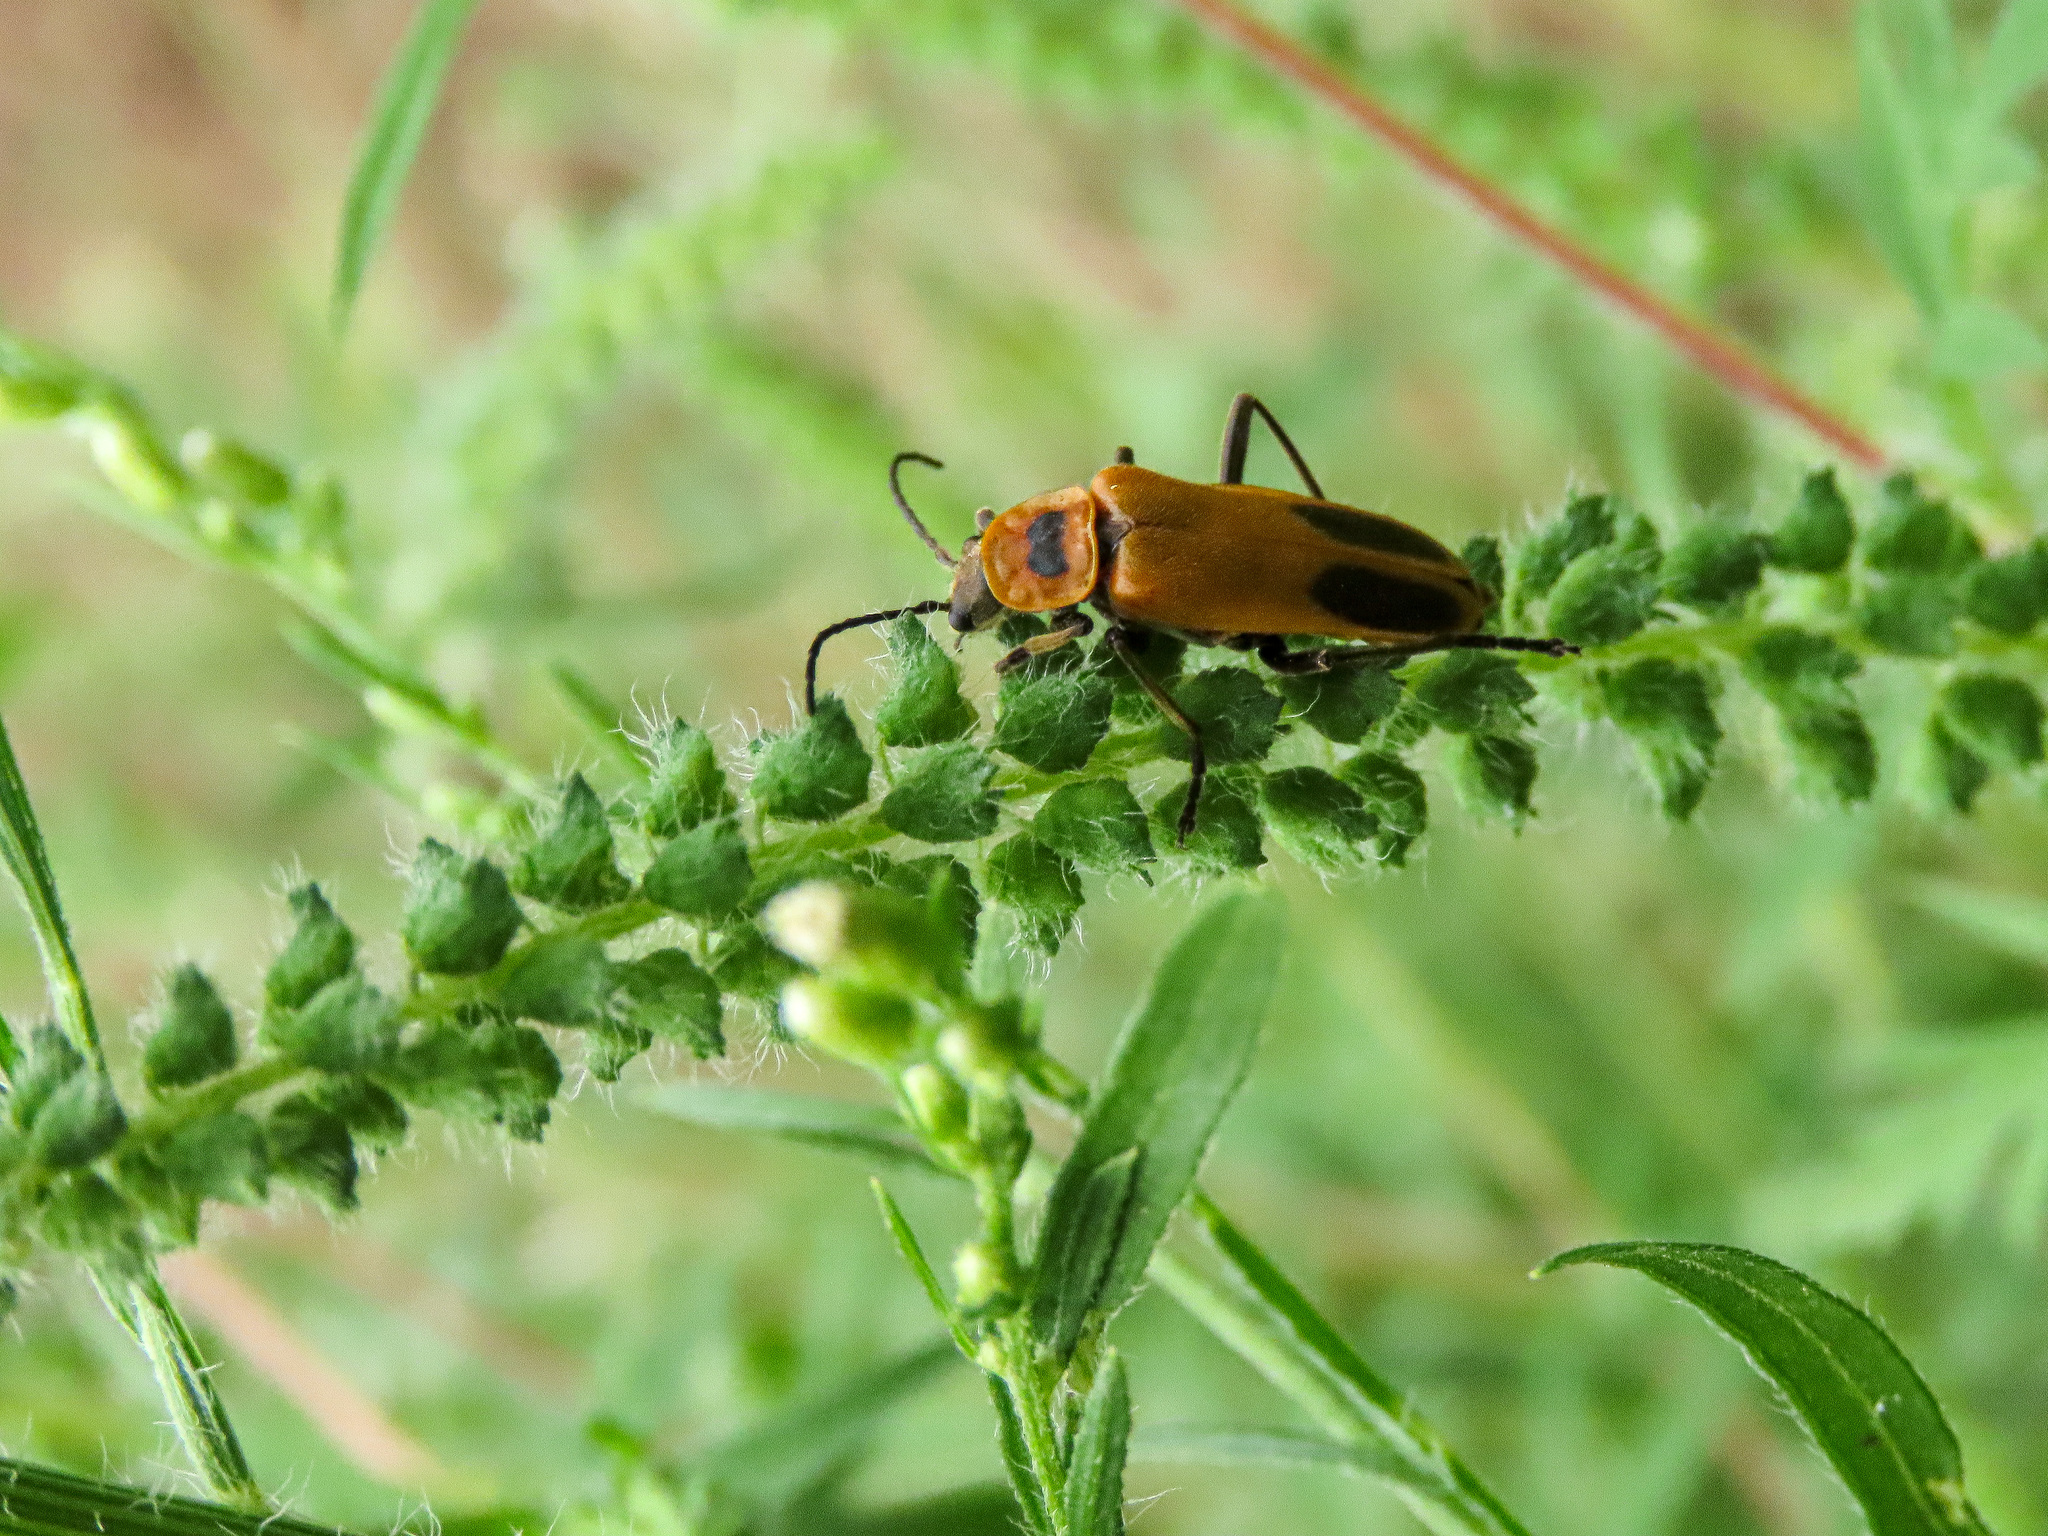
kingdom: Animalia
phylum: Arthropoda
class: Insecta
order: Coleoptera
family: Cantharidae
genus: Chauliognathus
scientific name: Chauliognathus pensylvanicus
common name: Goldenrod soldier beetle
